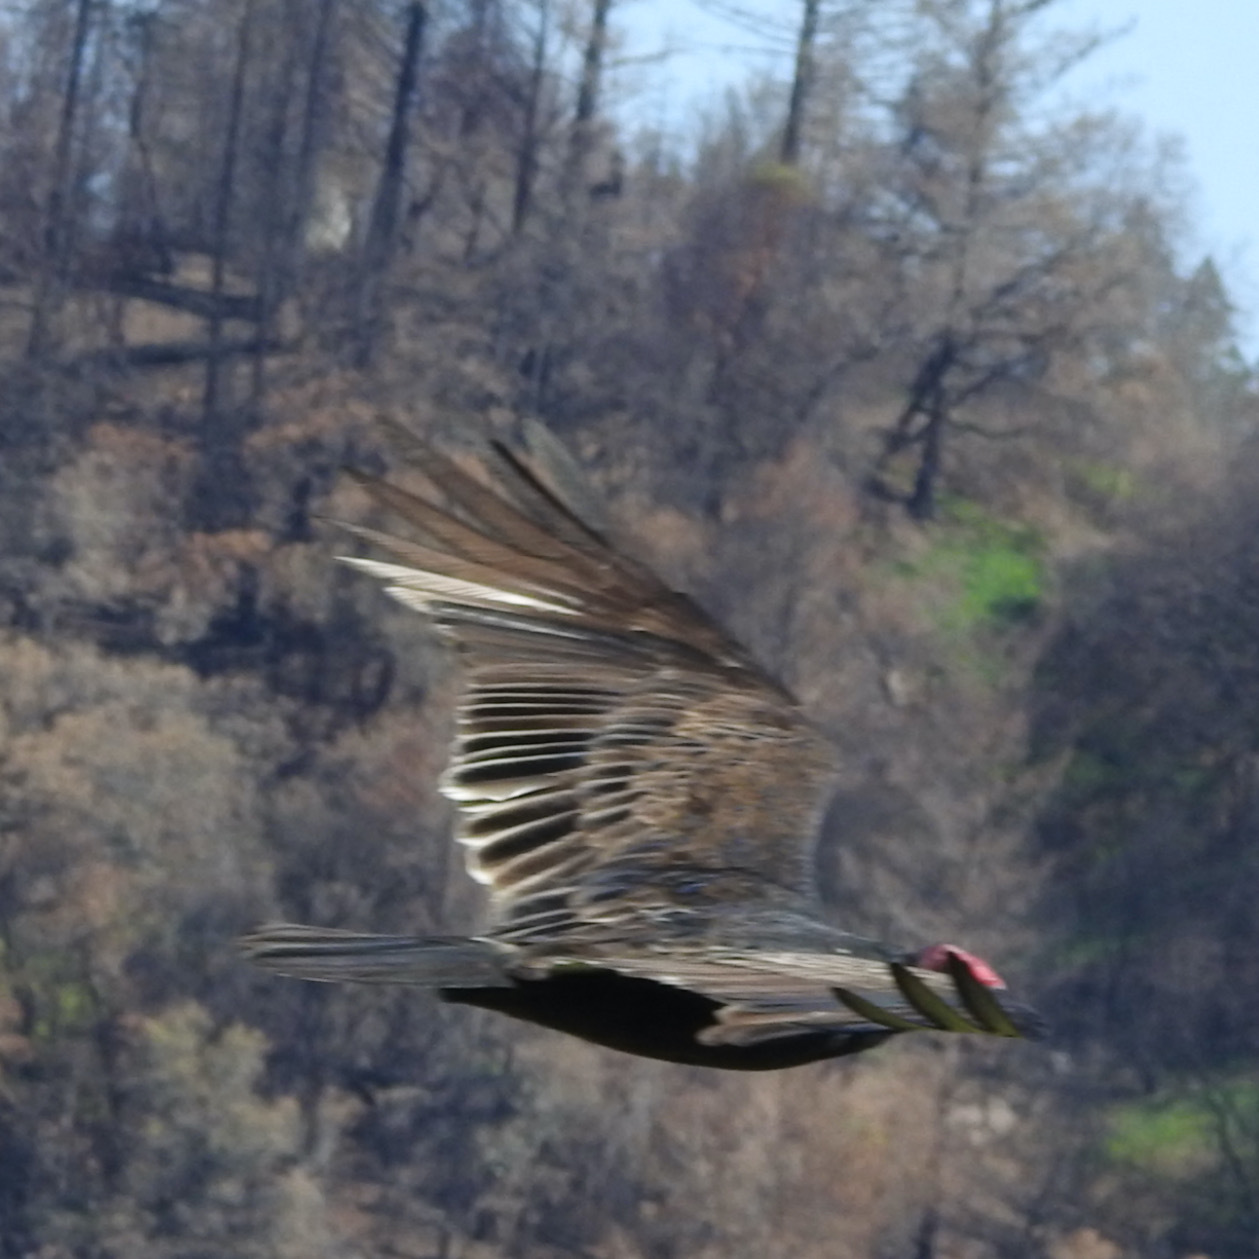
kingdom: Animalia
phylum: Chordata
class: Aves
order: Accipitriformes
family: Cathartidae
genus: Cathartes
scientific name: Cathartes aura
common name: Turkey vulture
